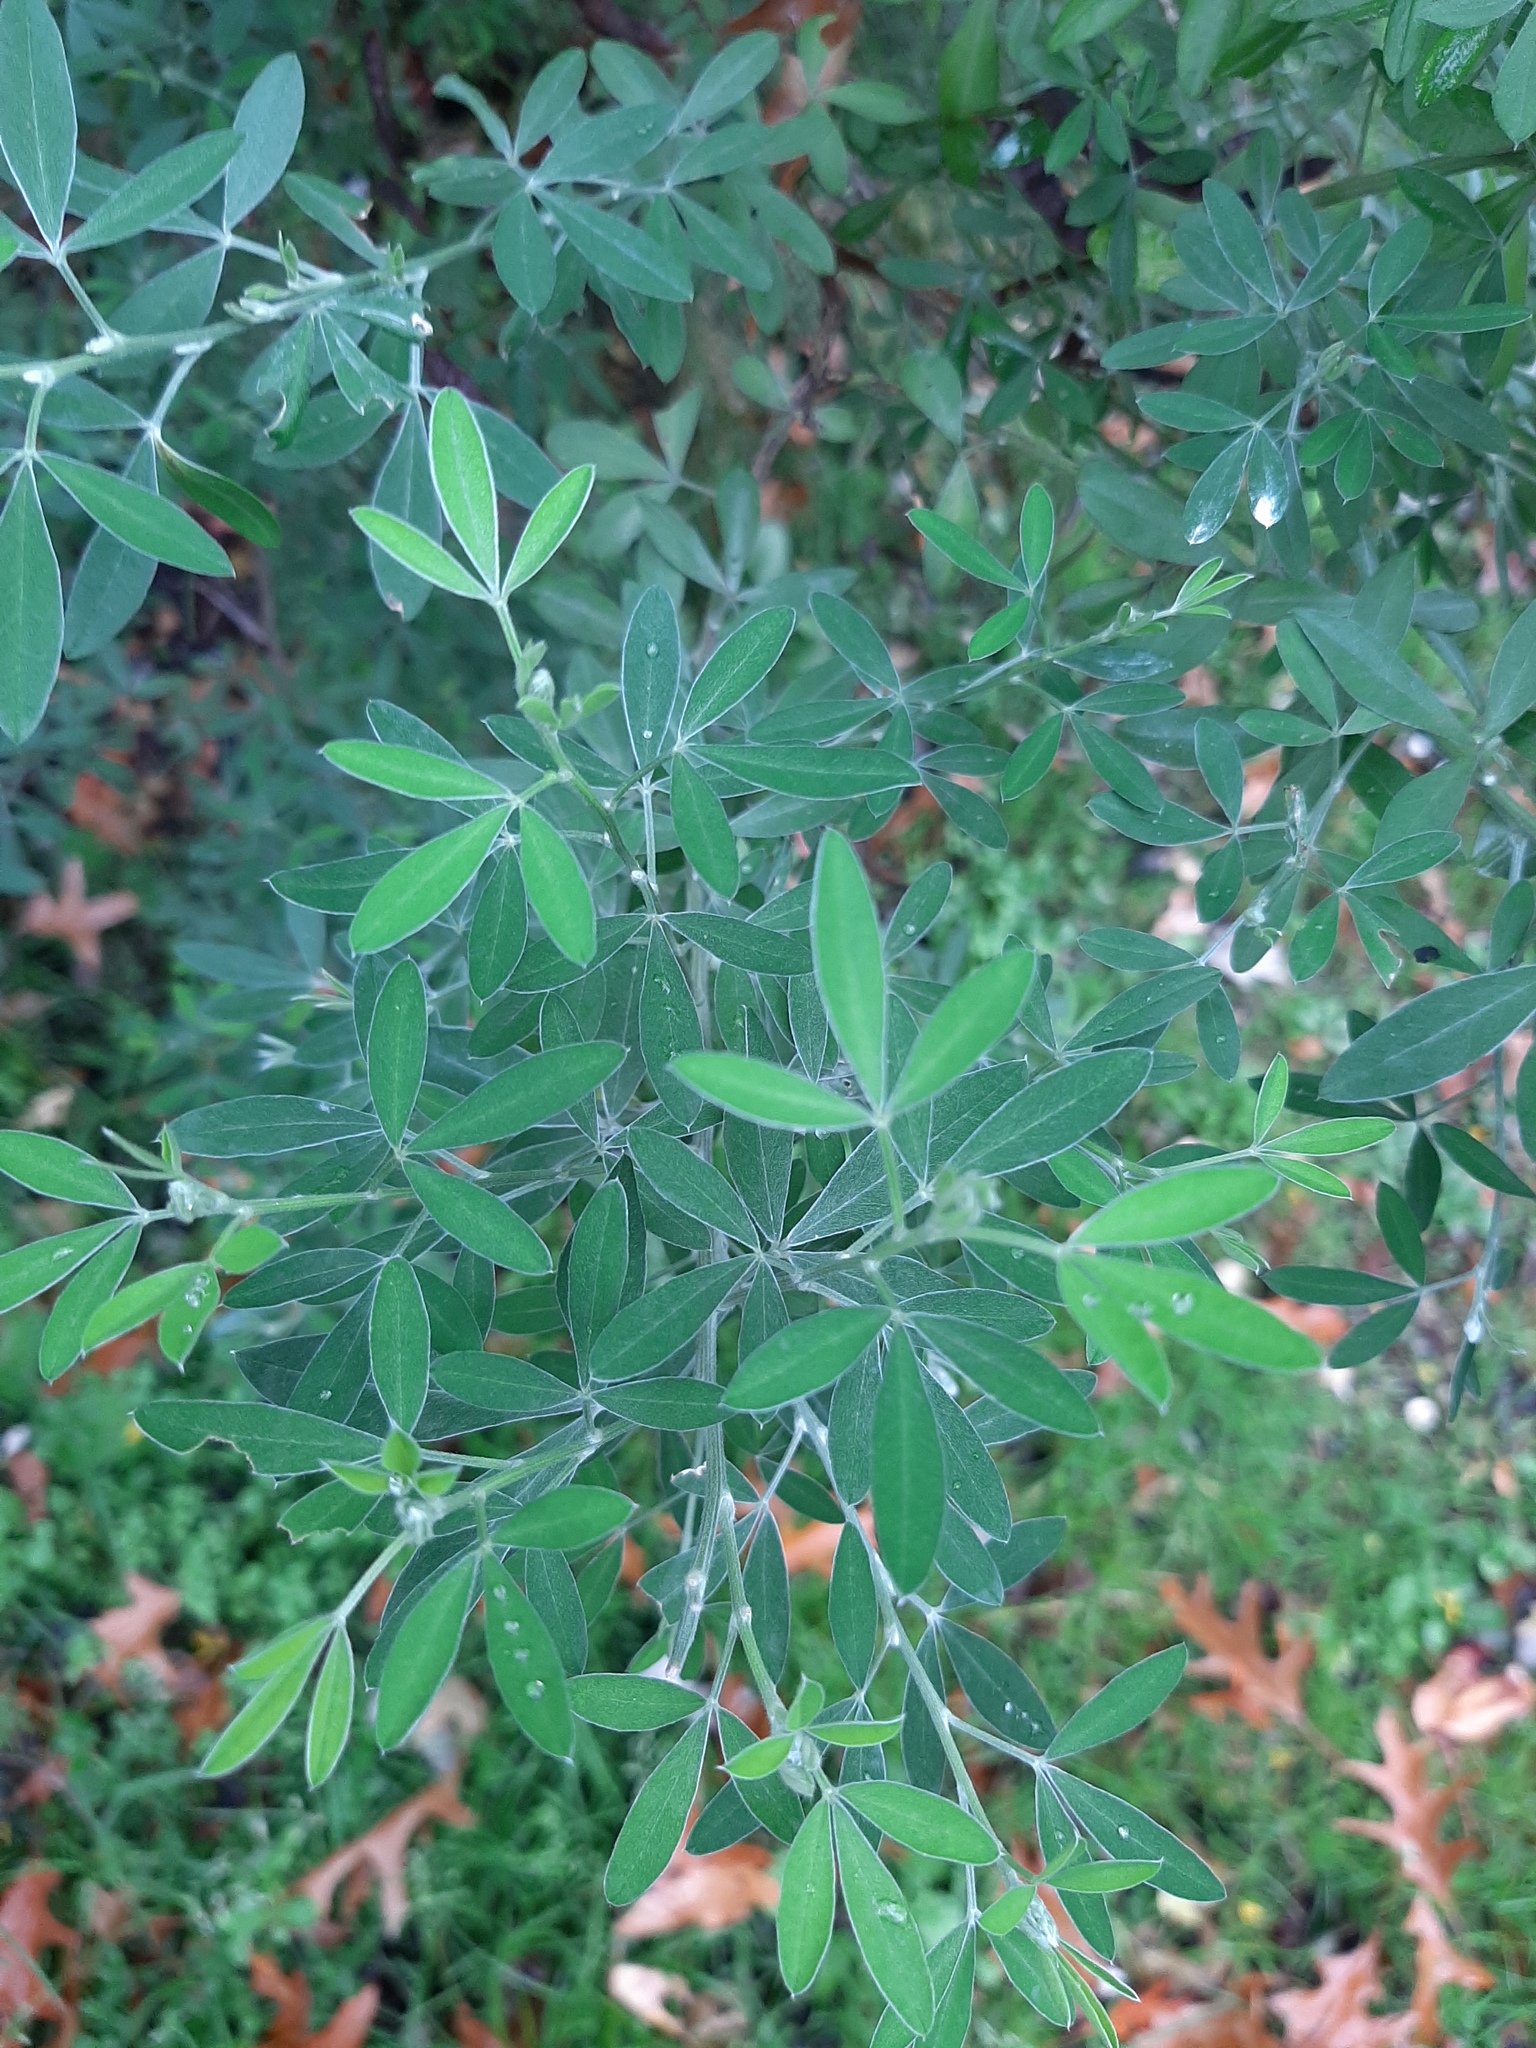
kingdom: Plantae
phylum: Tracheophyta
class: Magnoliopsida
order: Fabales
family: Fabaceae
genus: Chamaecytisus
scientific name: Chamaecytisus prolifer
